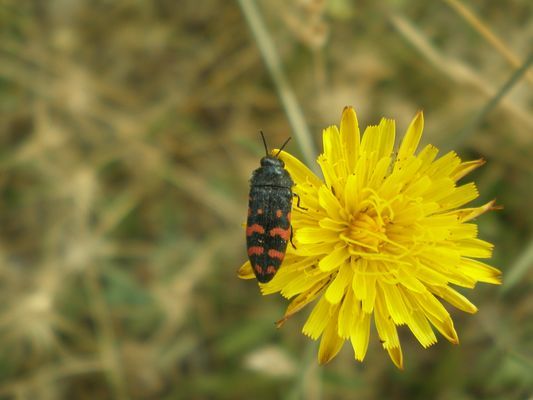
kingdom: Animalia
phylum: Arthropoda
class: Insecta
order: Coleoptera
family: Buprestidae
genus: Acmaeodera
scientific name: Acmaeodera pulchra
